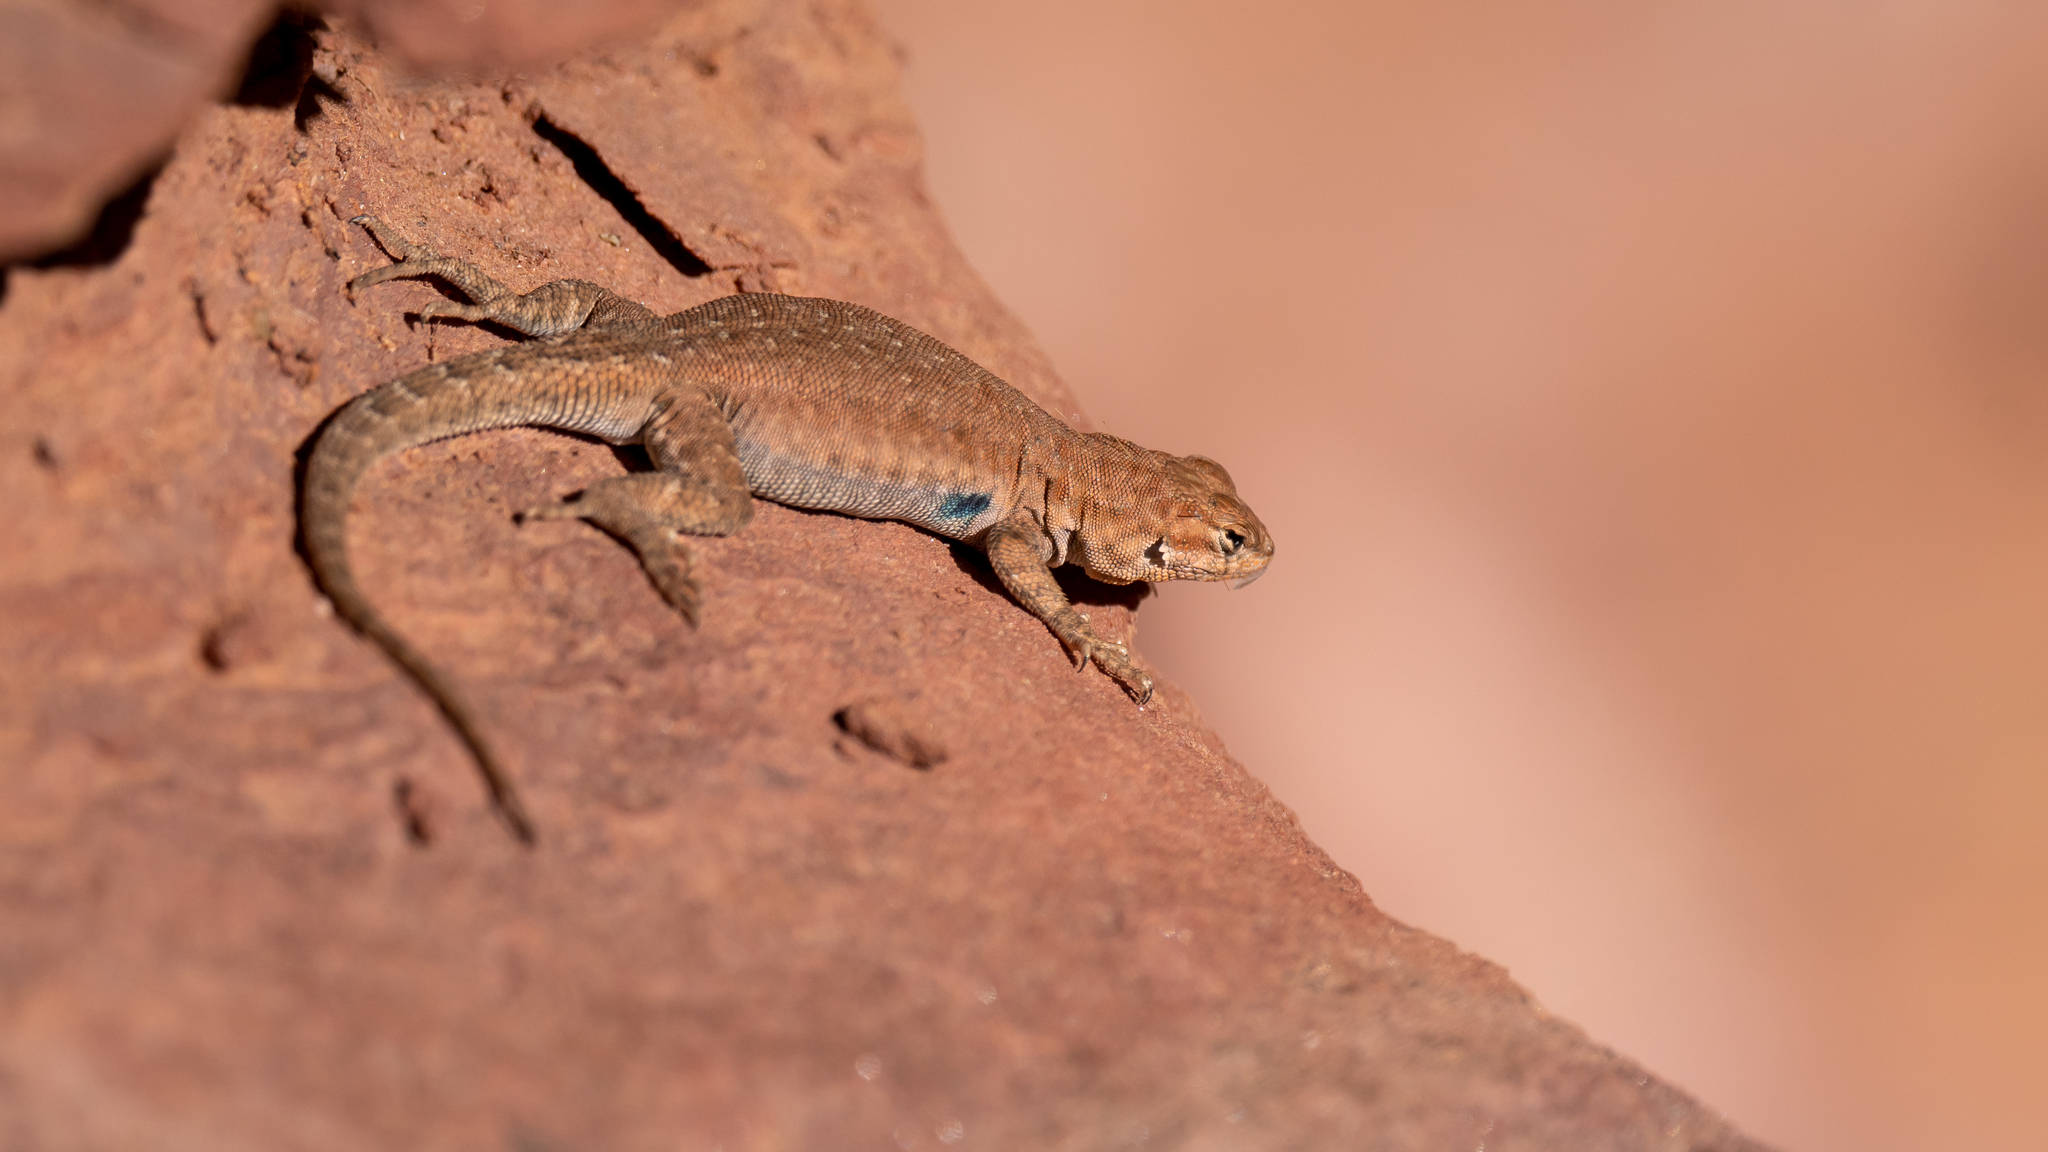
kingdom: Animalia
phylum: Chordata
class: Squamata
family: Phrynosomatidae
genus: Uta
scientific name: Uta stansburiana
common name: Side-blotched lizard
